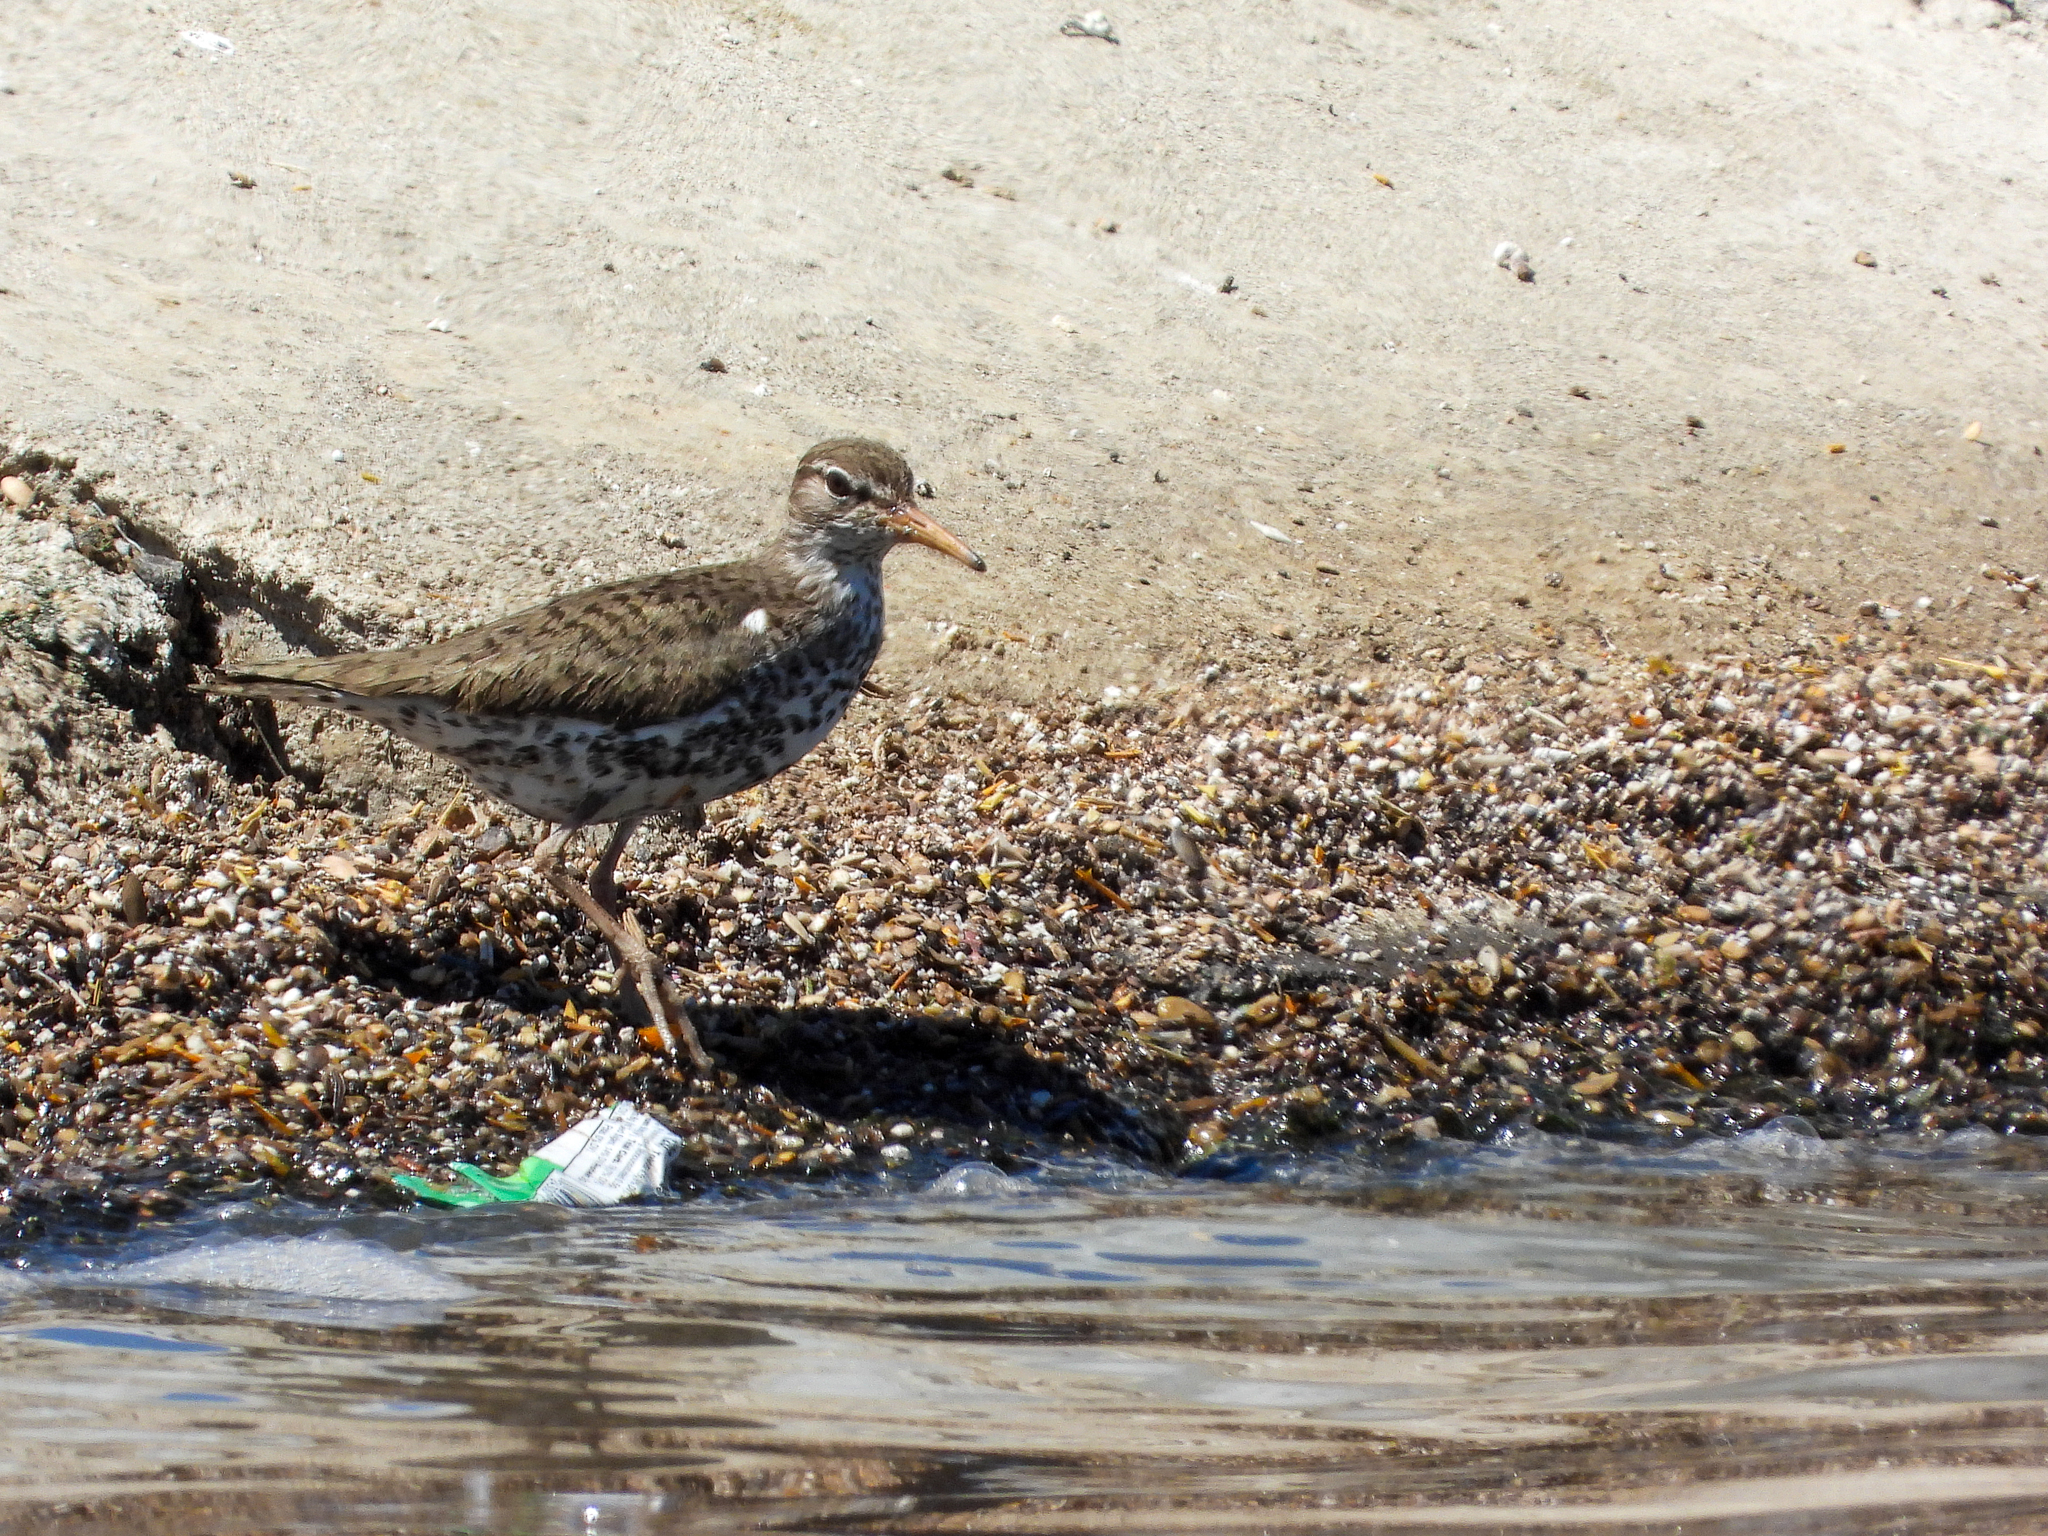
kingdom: Animalia
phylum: Chordata
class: Aves
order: Charadriiformes
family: Scolopacidae
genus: Actitis
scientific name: Actitis macularius
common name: Spotted sandpiper
